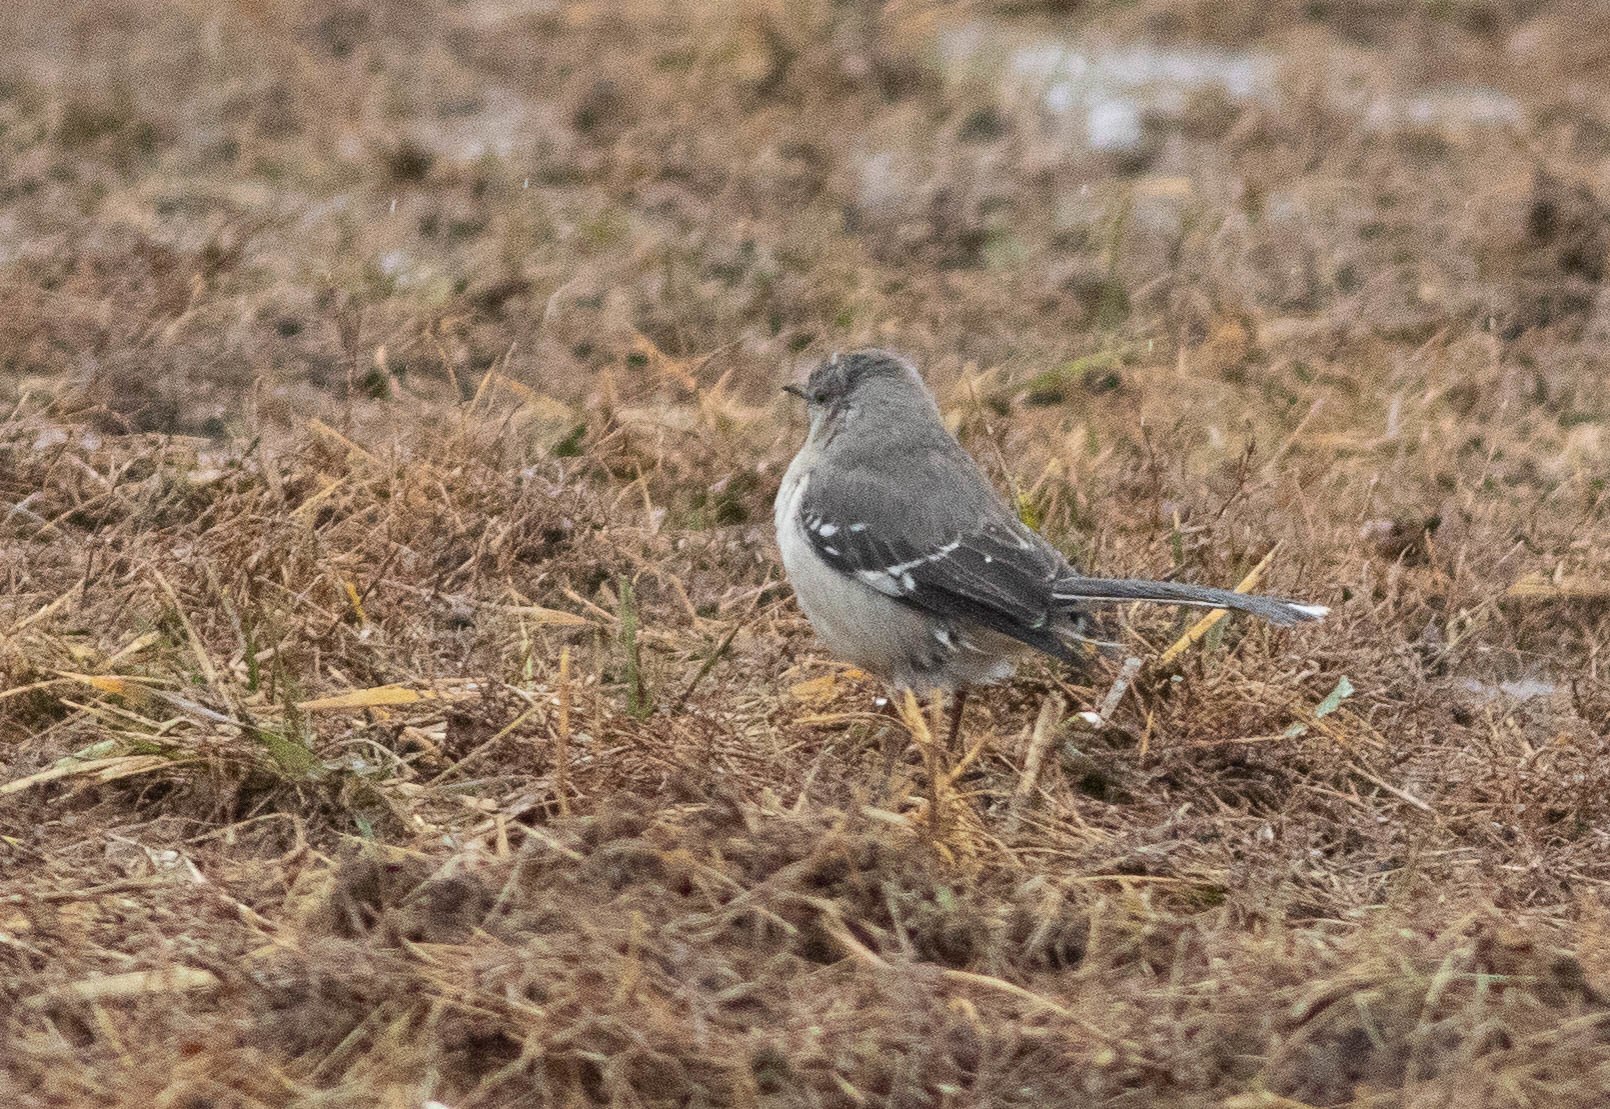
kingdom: Animalia
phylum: Chordata
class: Aves
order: Passeriformes
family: Mimidae
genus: Mimus
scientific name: Mimus polyglottos
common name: Northern mockingbird
